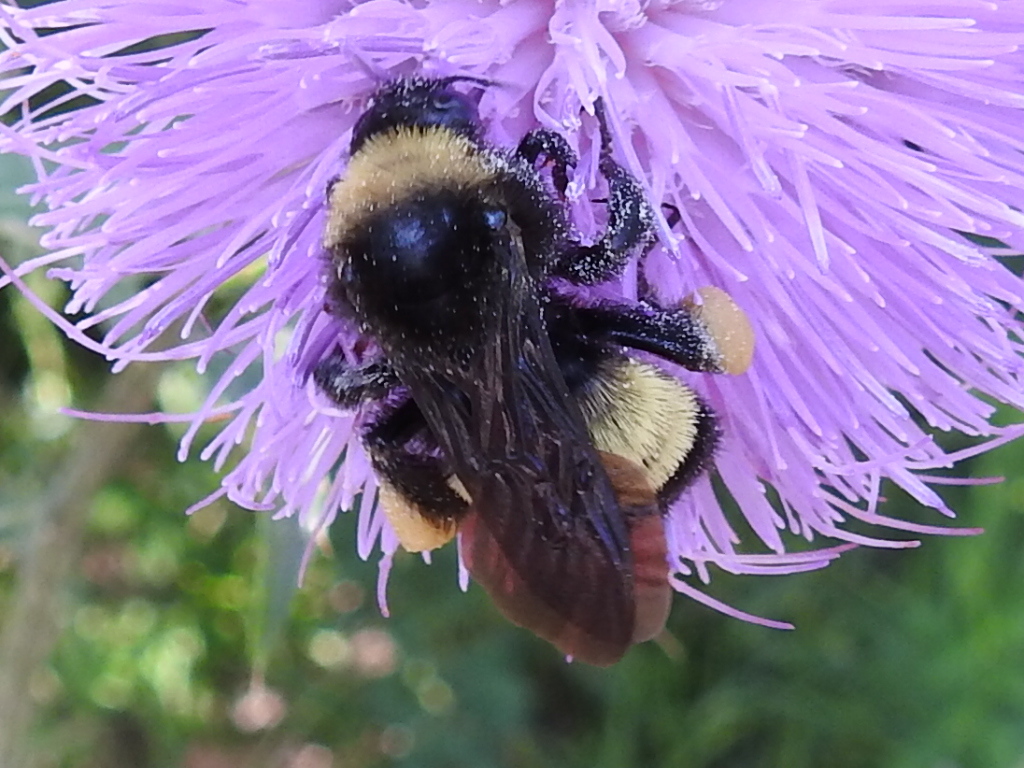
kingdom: Animalia
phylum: Arthropoda
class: Insecta
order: Hymenoptera
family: Apidae
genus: Bombus
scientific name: Bombus pensylvanicus
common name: Bumble bee
